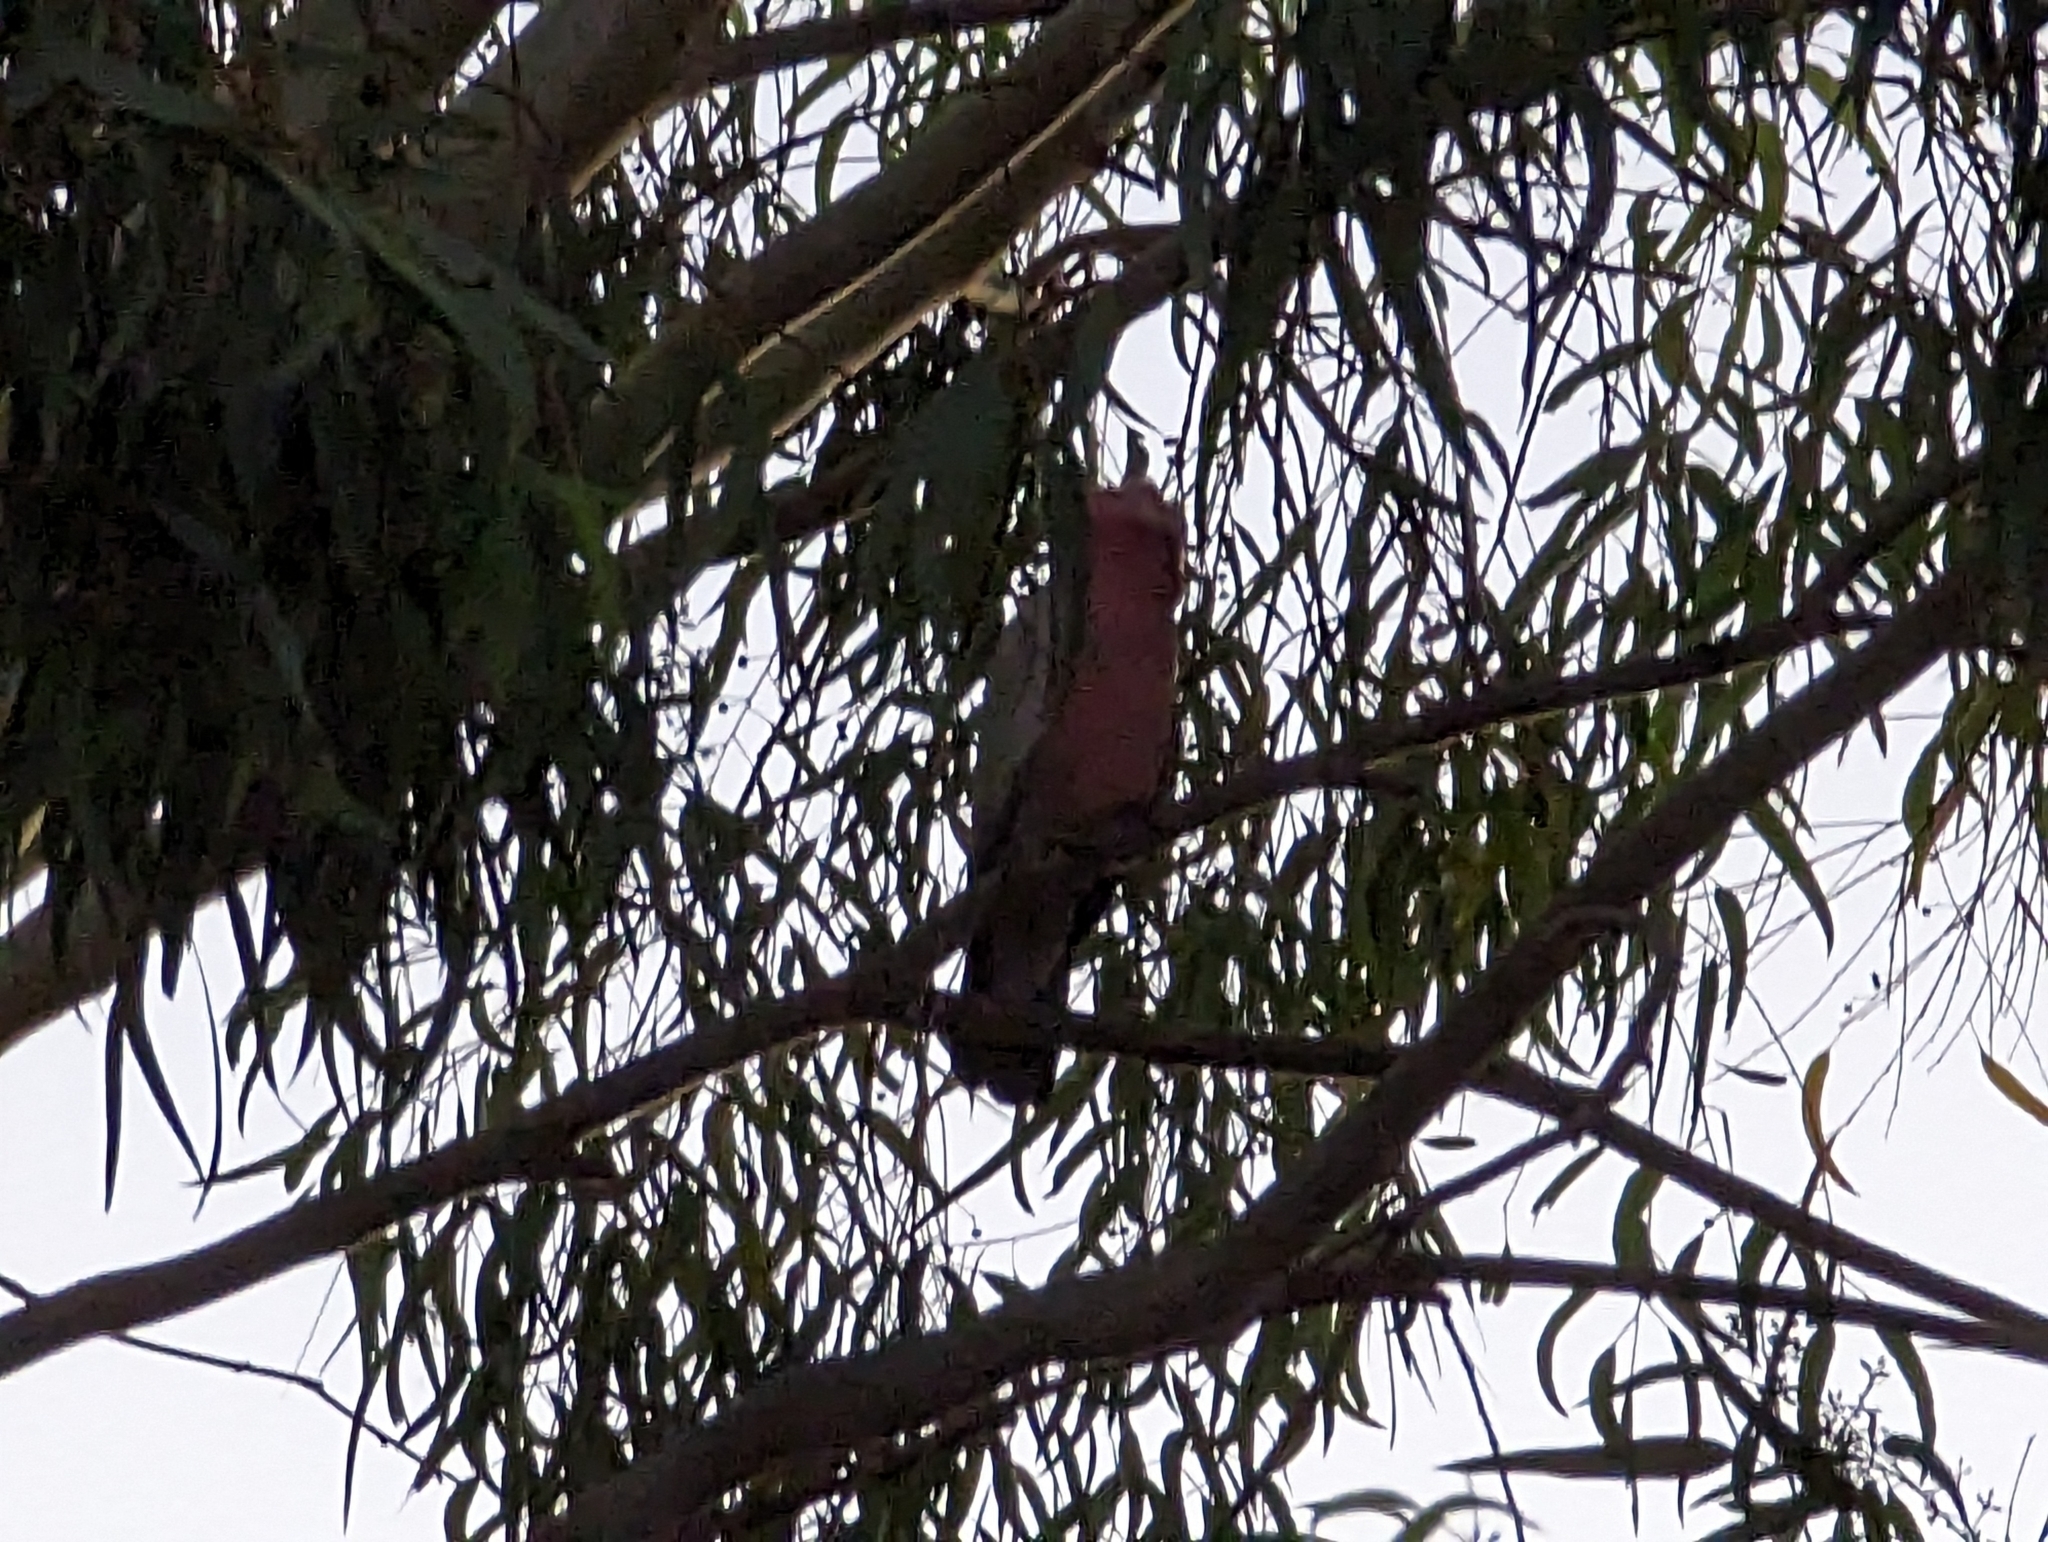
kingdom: Animalia
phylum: Chordata
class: Aves
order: Psittaciformes
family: Psittacidae
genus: Eolophus
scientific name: Eolophus roseicapilla
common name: Galah
